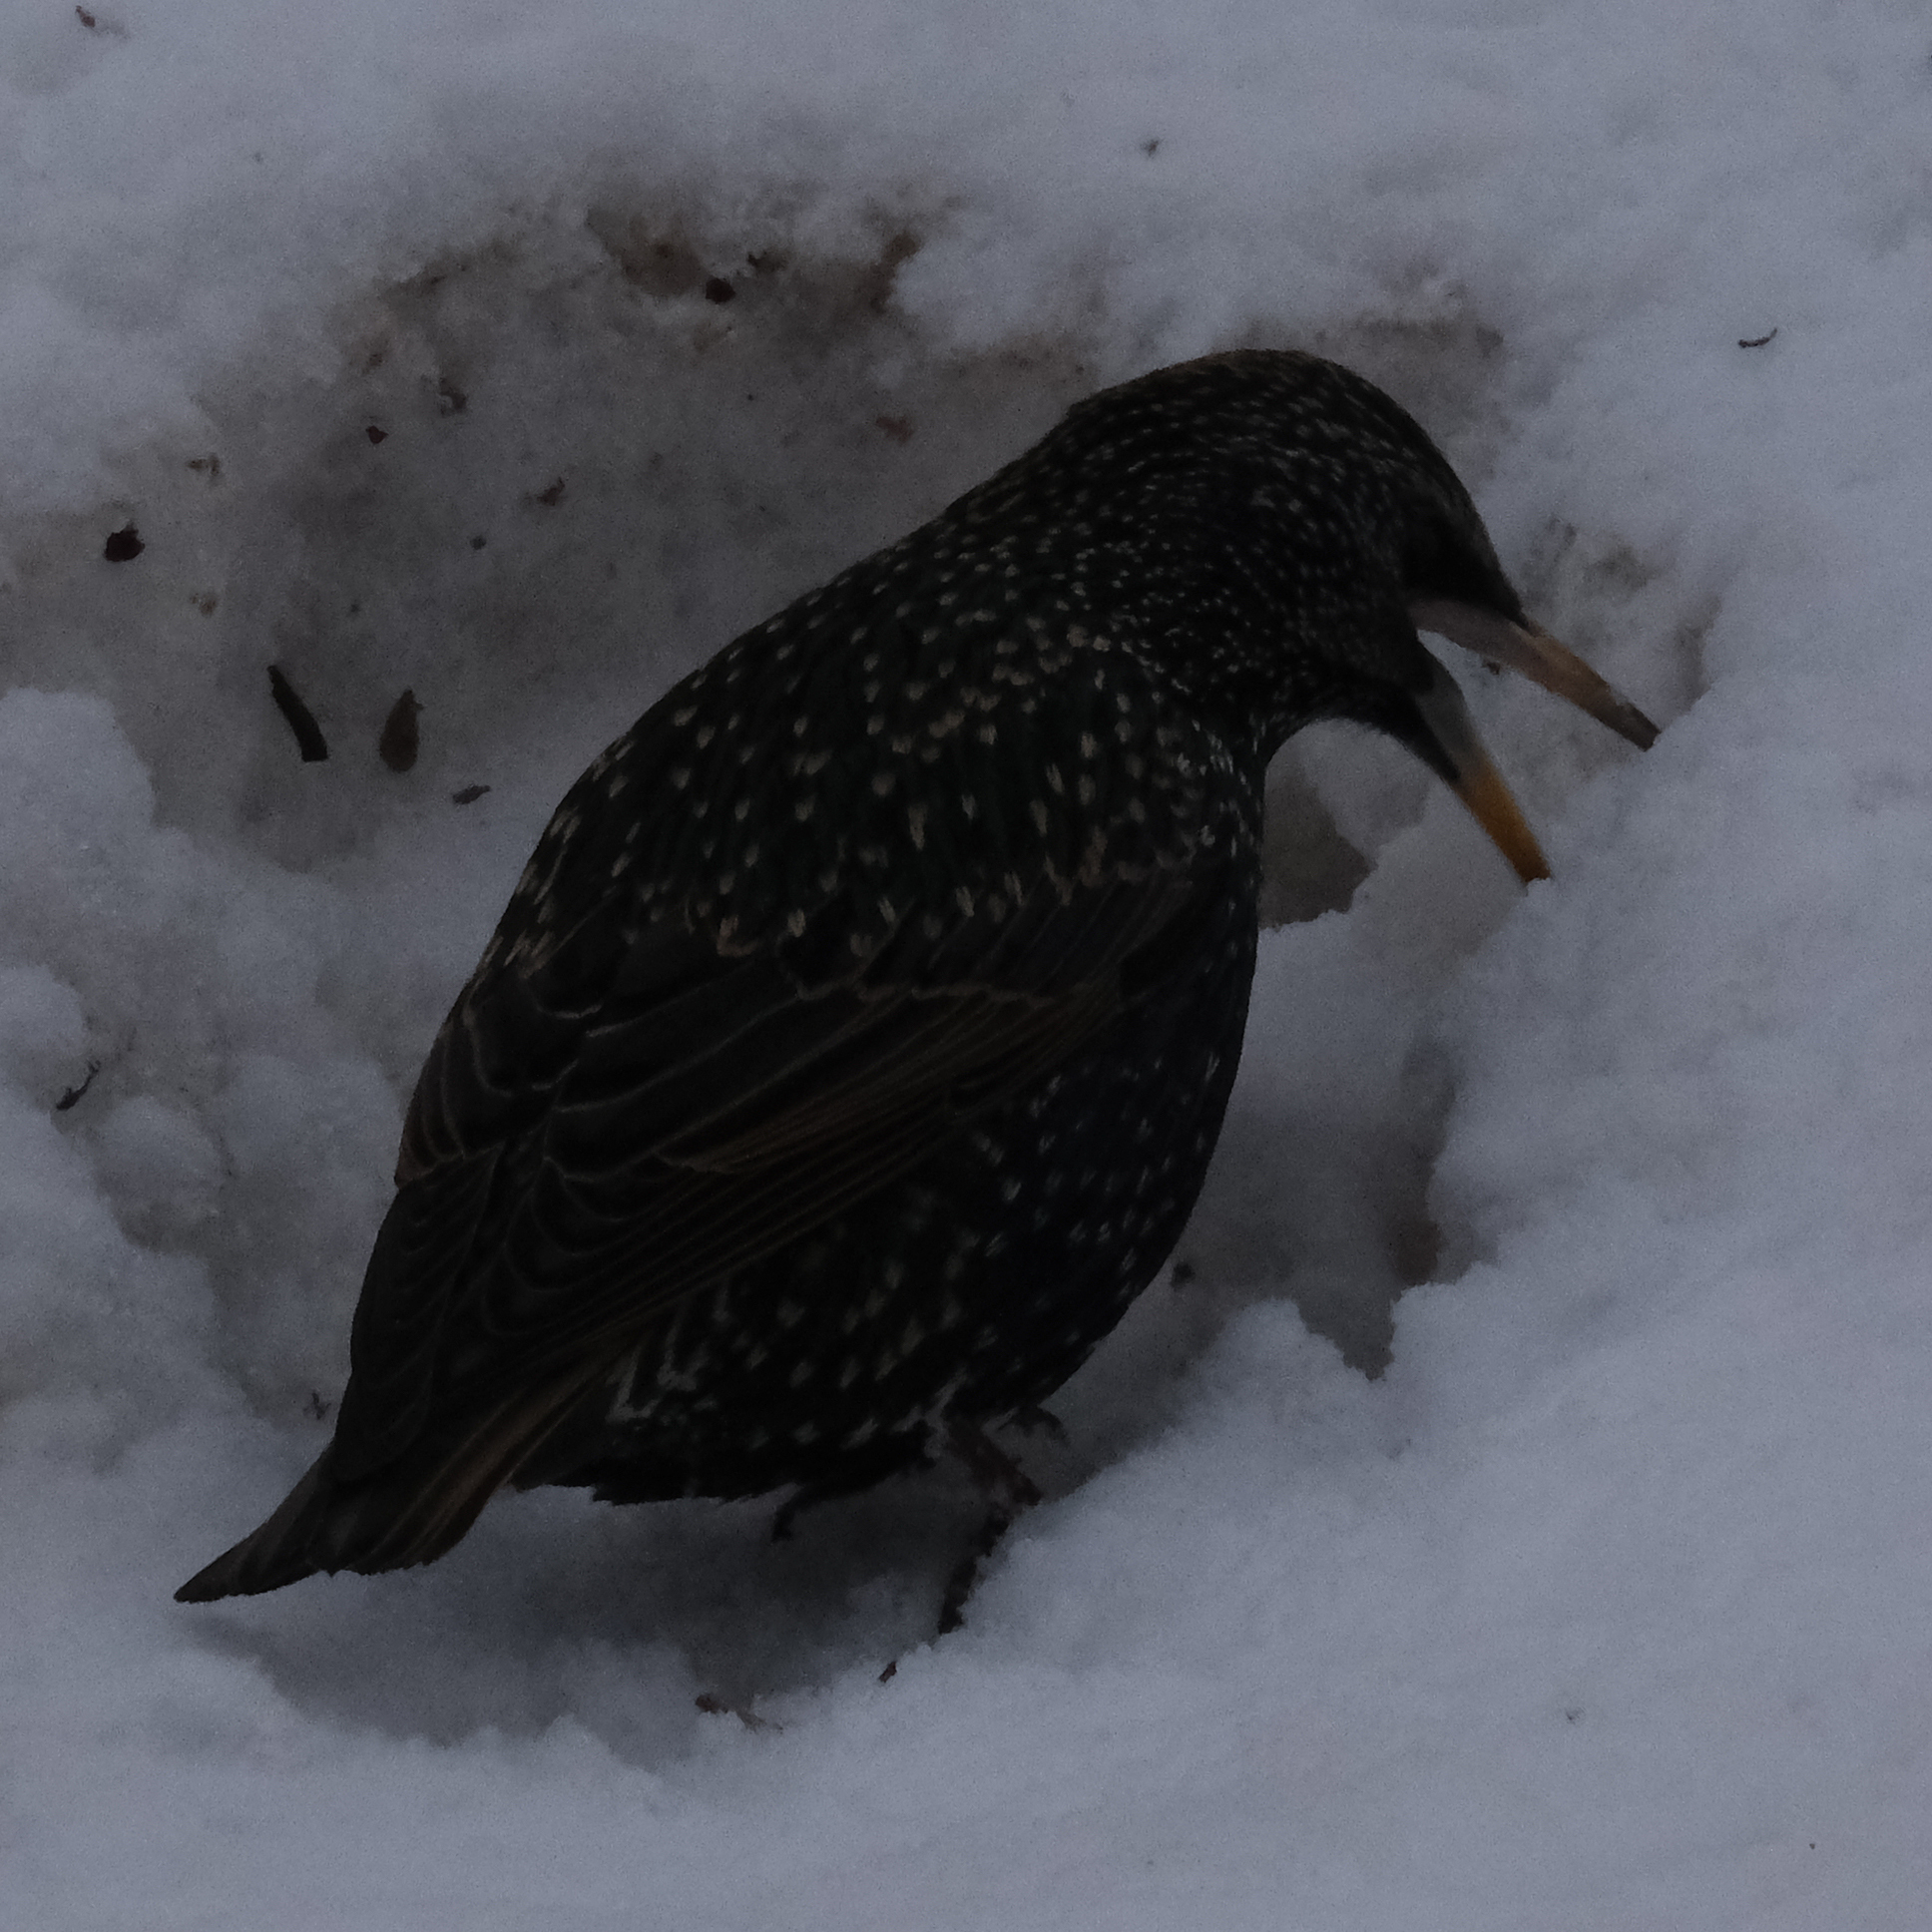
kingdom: Animalia
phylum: Chordata
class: Aves
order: Passeriformes
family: Sturnidae
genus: Sturnus
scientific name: Sturnus vulgaris
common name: Common starling
